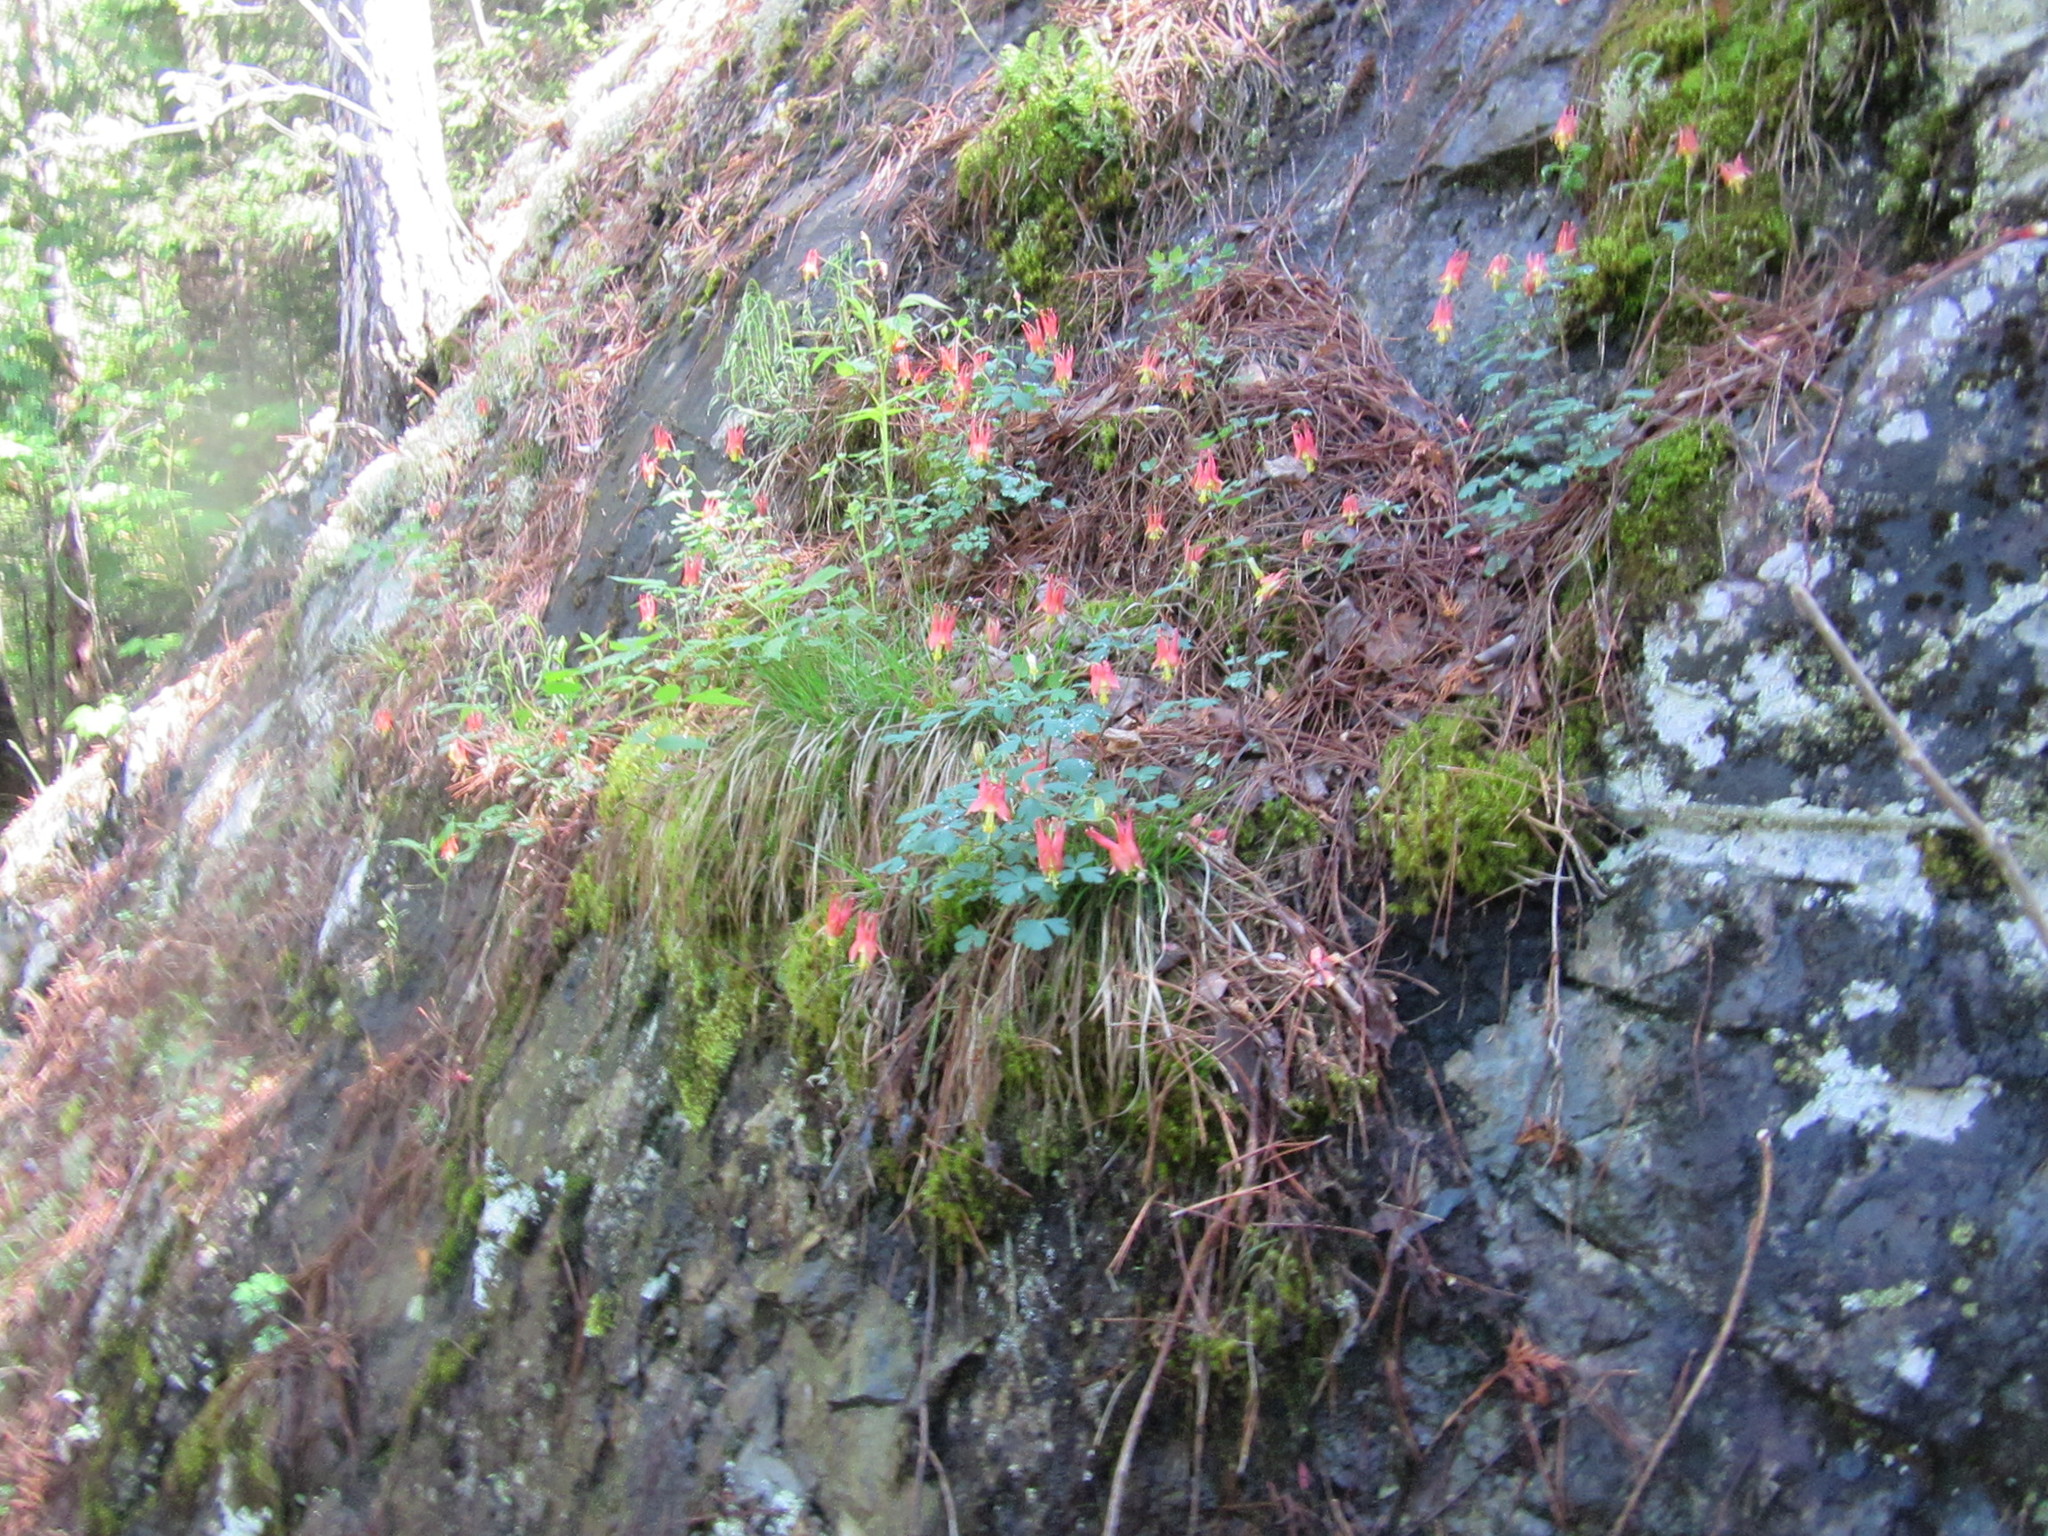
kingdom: Plantae
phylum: Tracheophyta
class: Magnoliopsida
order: Ranunculales
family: Ranunculaceae
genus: Aquilegia
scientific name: Aquilegia canadensis
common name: American columbine
